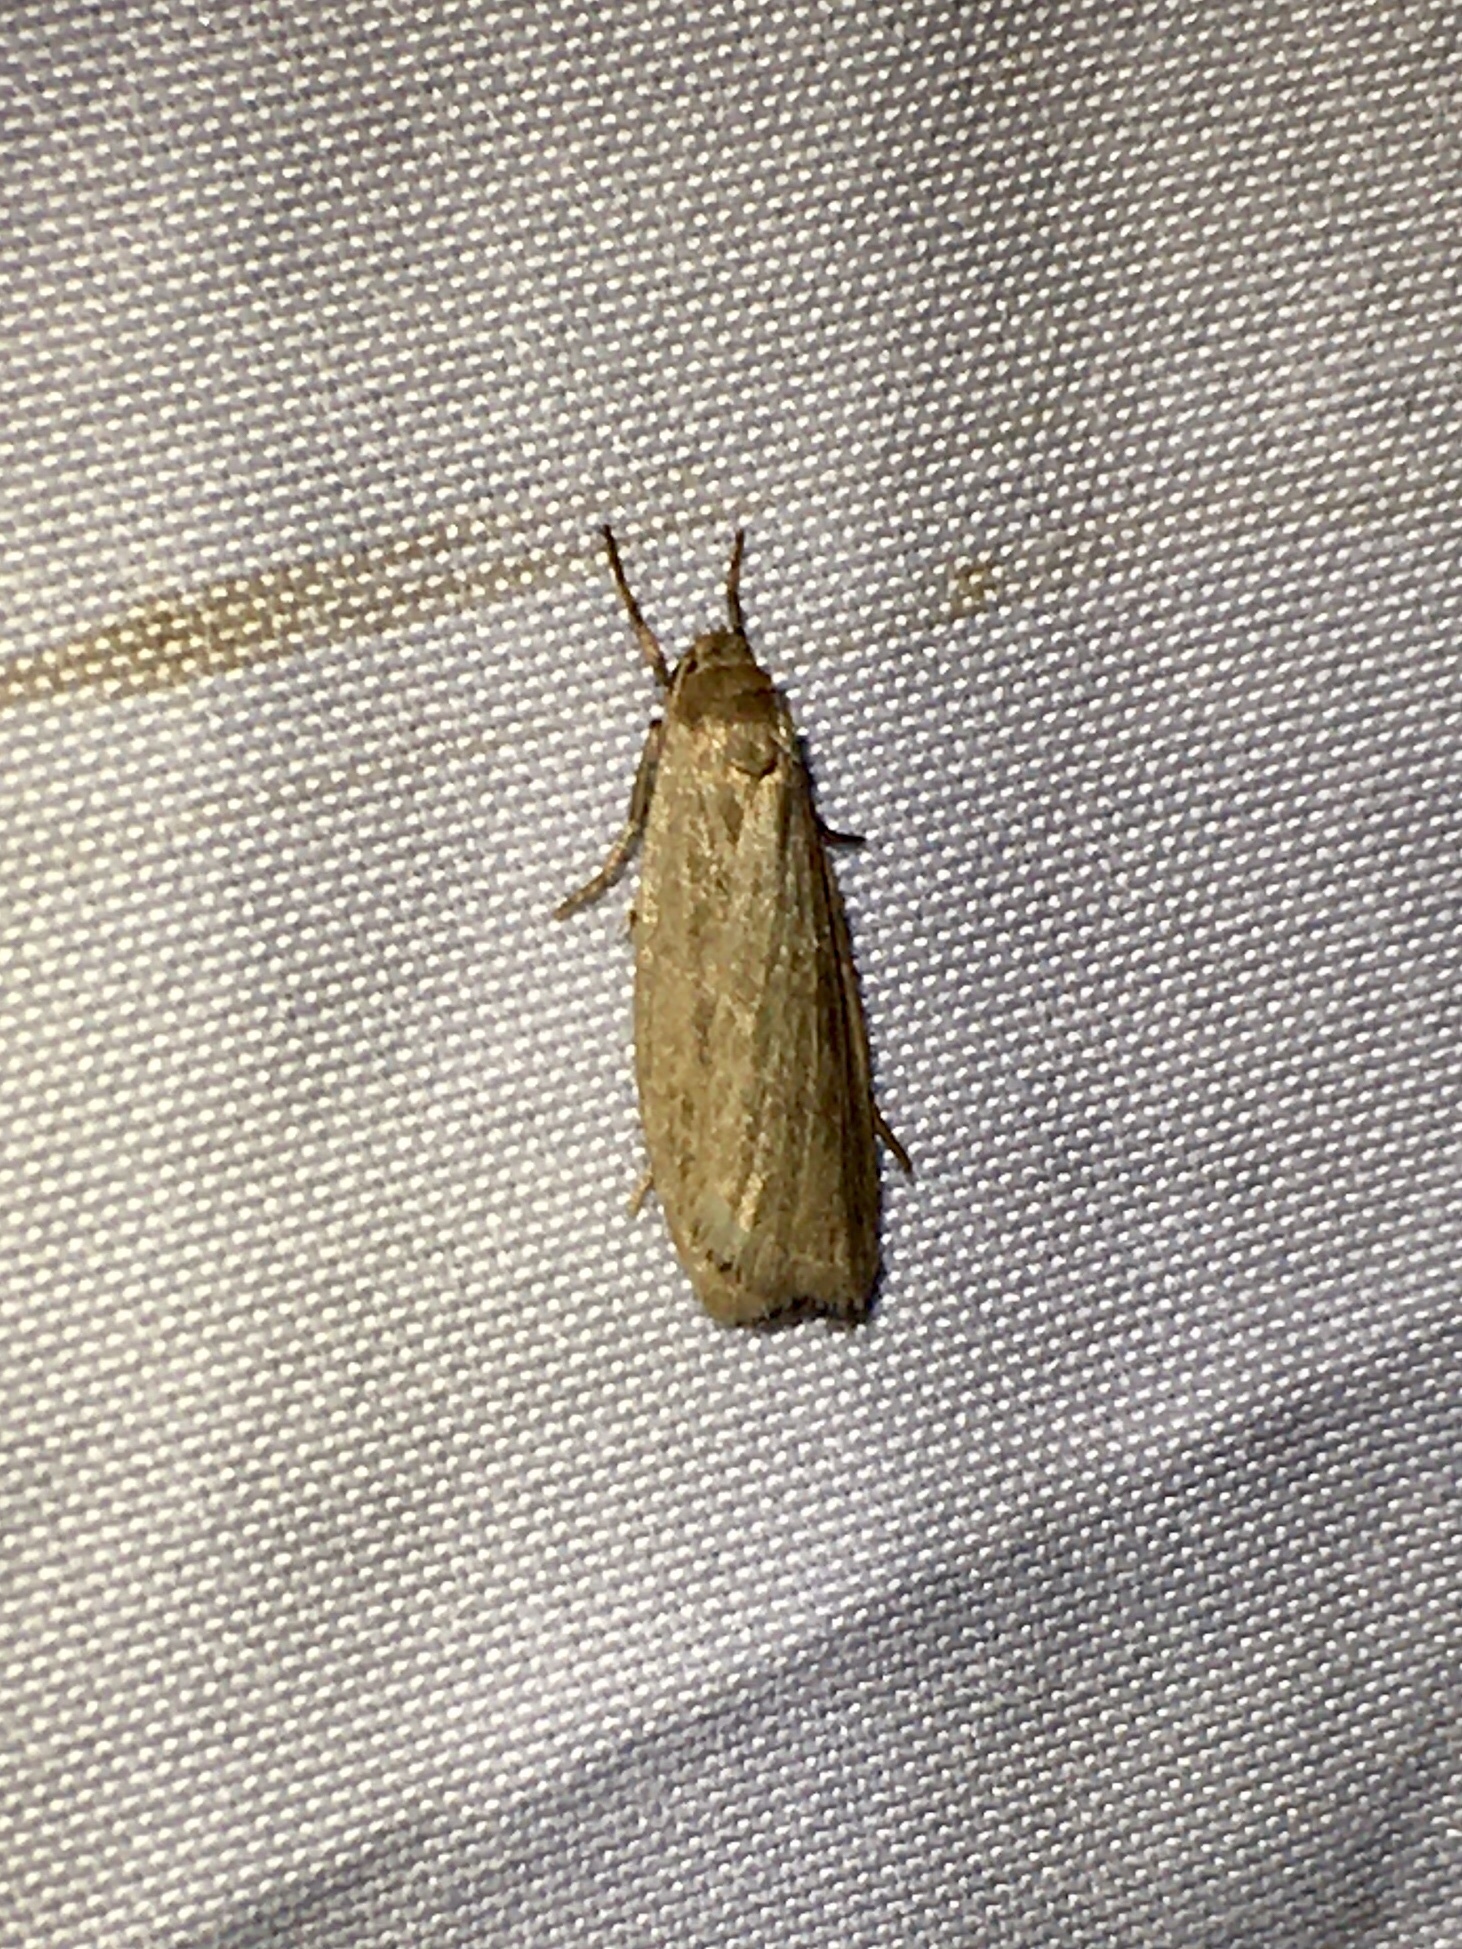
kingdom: Animalia
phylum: Arthropoda
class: Insecta
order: Lepidoptera
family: Erebidae
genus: Crambidia
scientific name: Crambidia pallida
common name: Pale lichen moth
